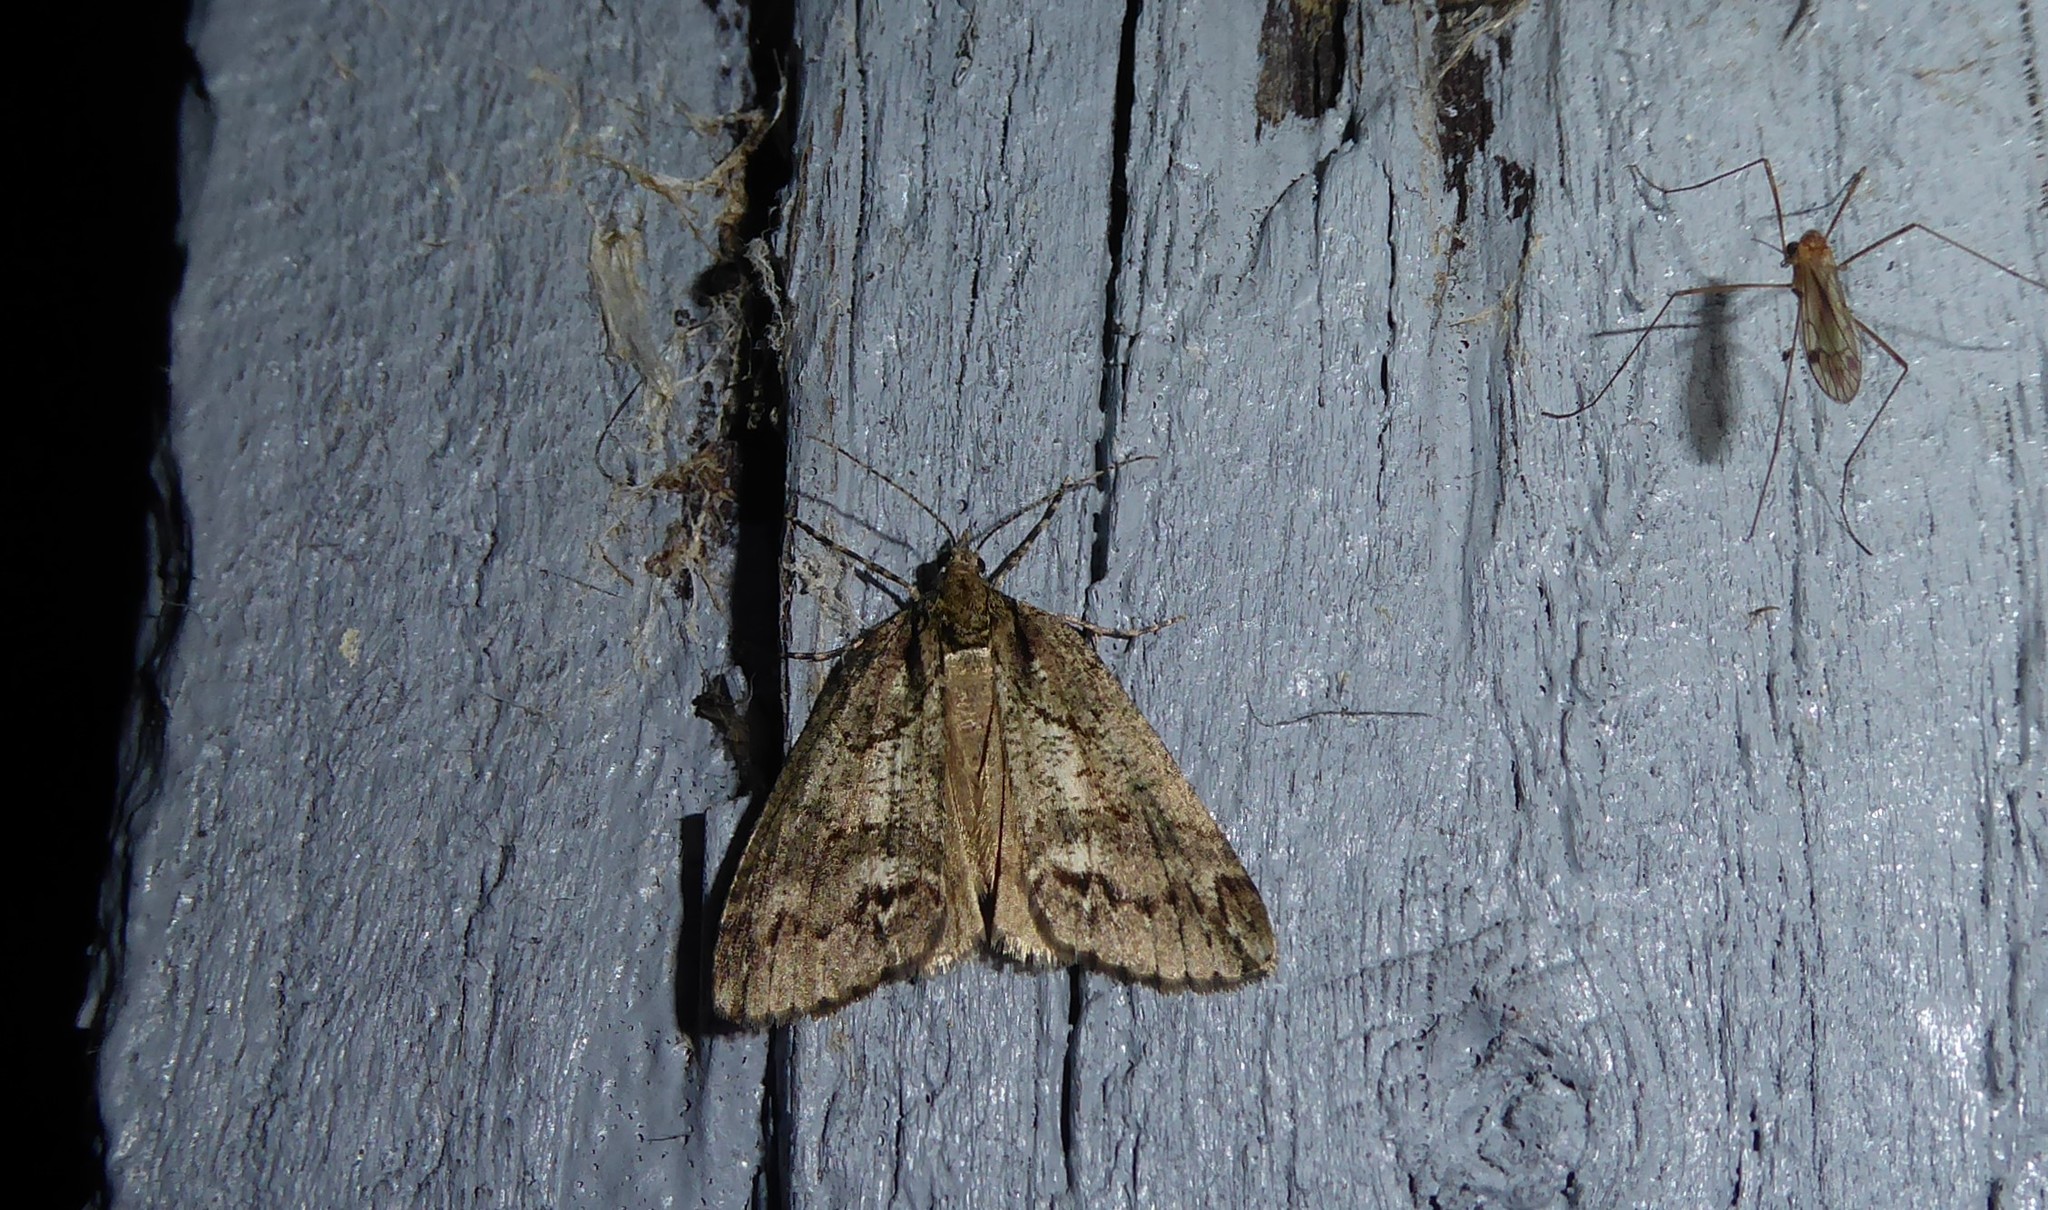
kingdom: Animalia
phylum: Arthropoda
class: Insecta
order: Lepidoptera
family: Geometridae
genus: Chalastra
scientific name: Chalastra ochrea
